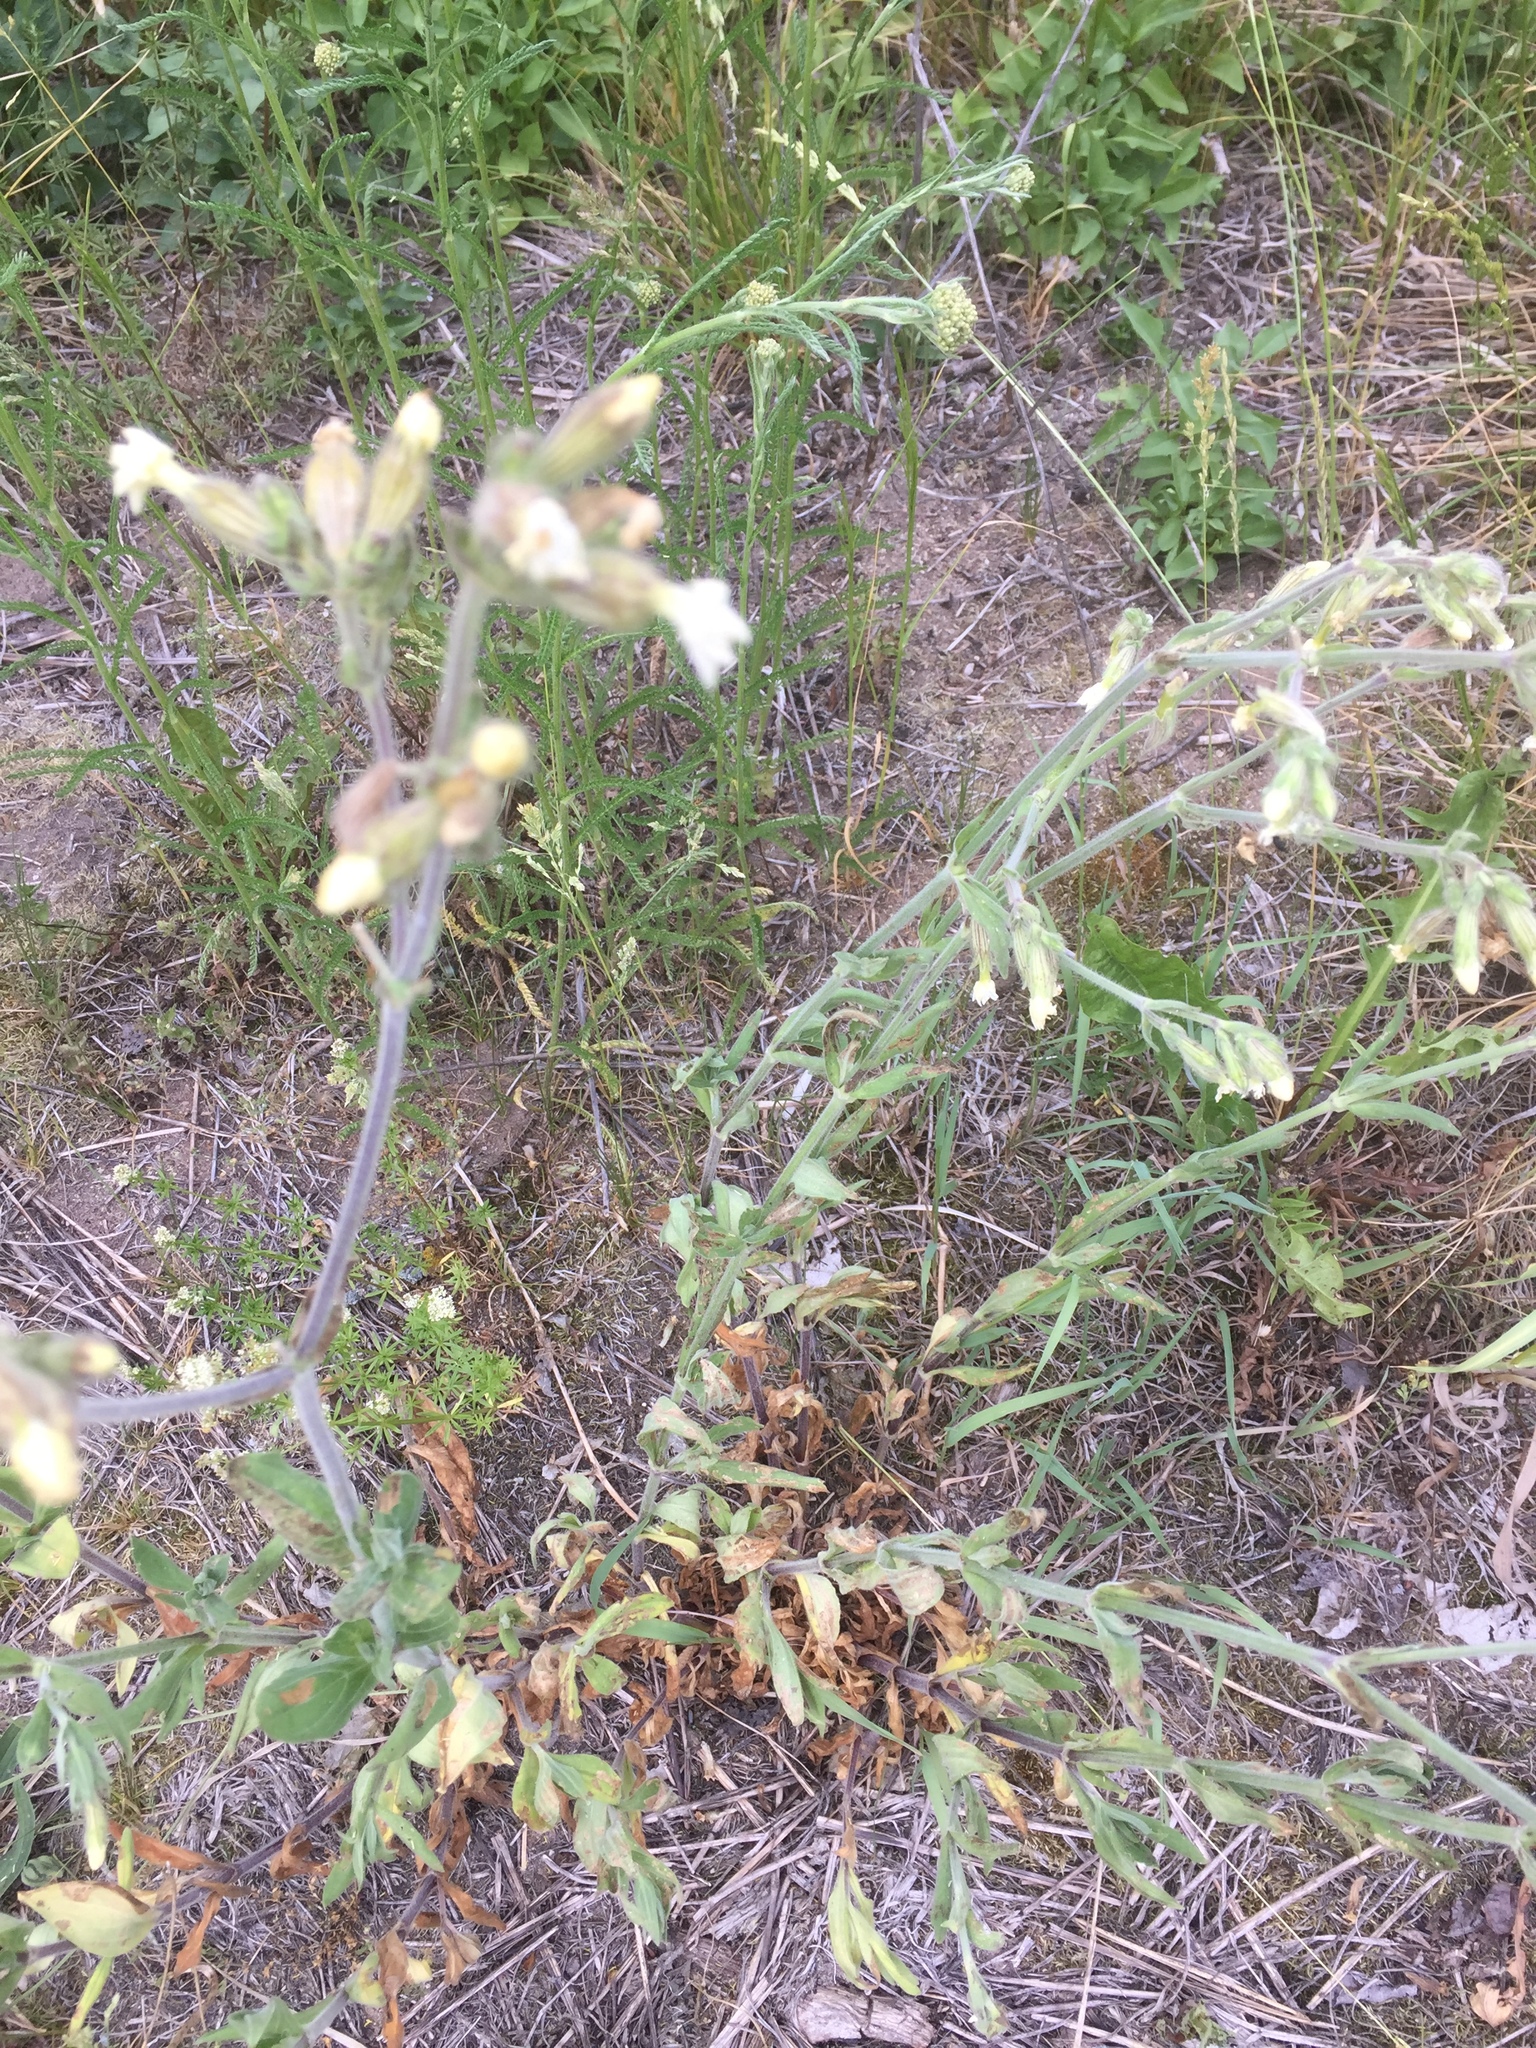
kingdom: Plantae
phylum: Tracheophyta
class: Magnoliopsida
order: Caryophyllales
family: Caryophyllaceae
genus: Silene
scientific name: Silene latifolia
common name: White campion
